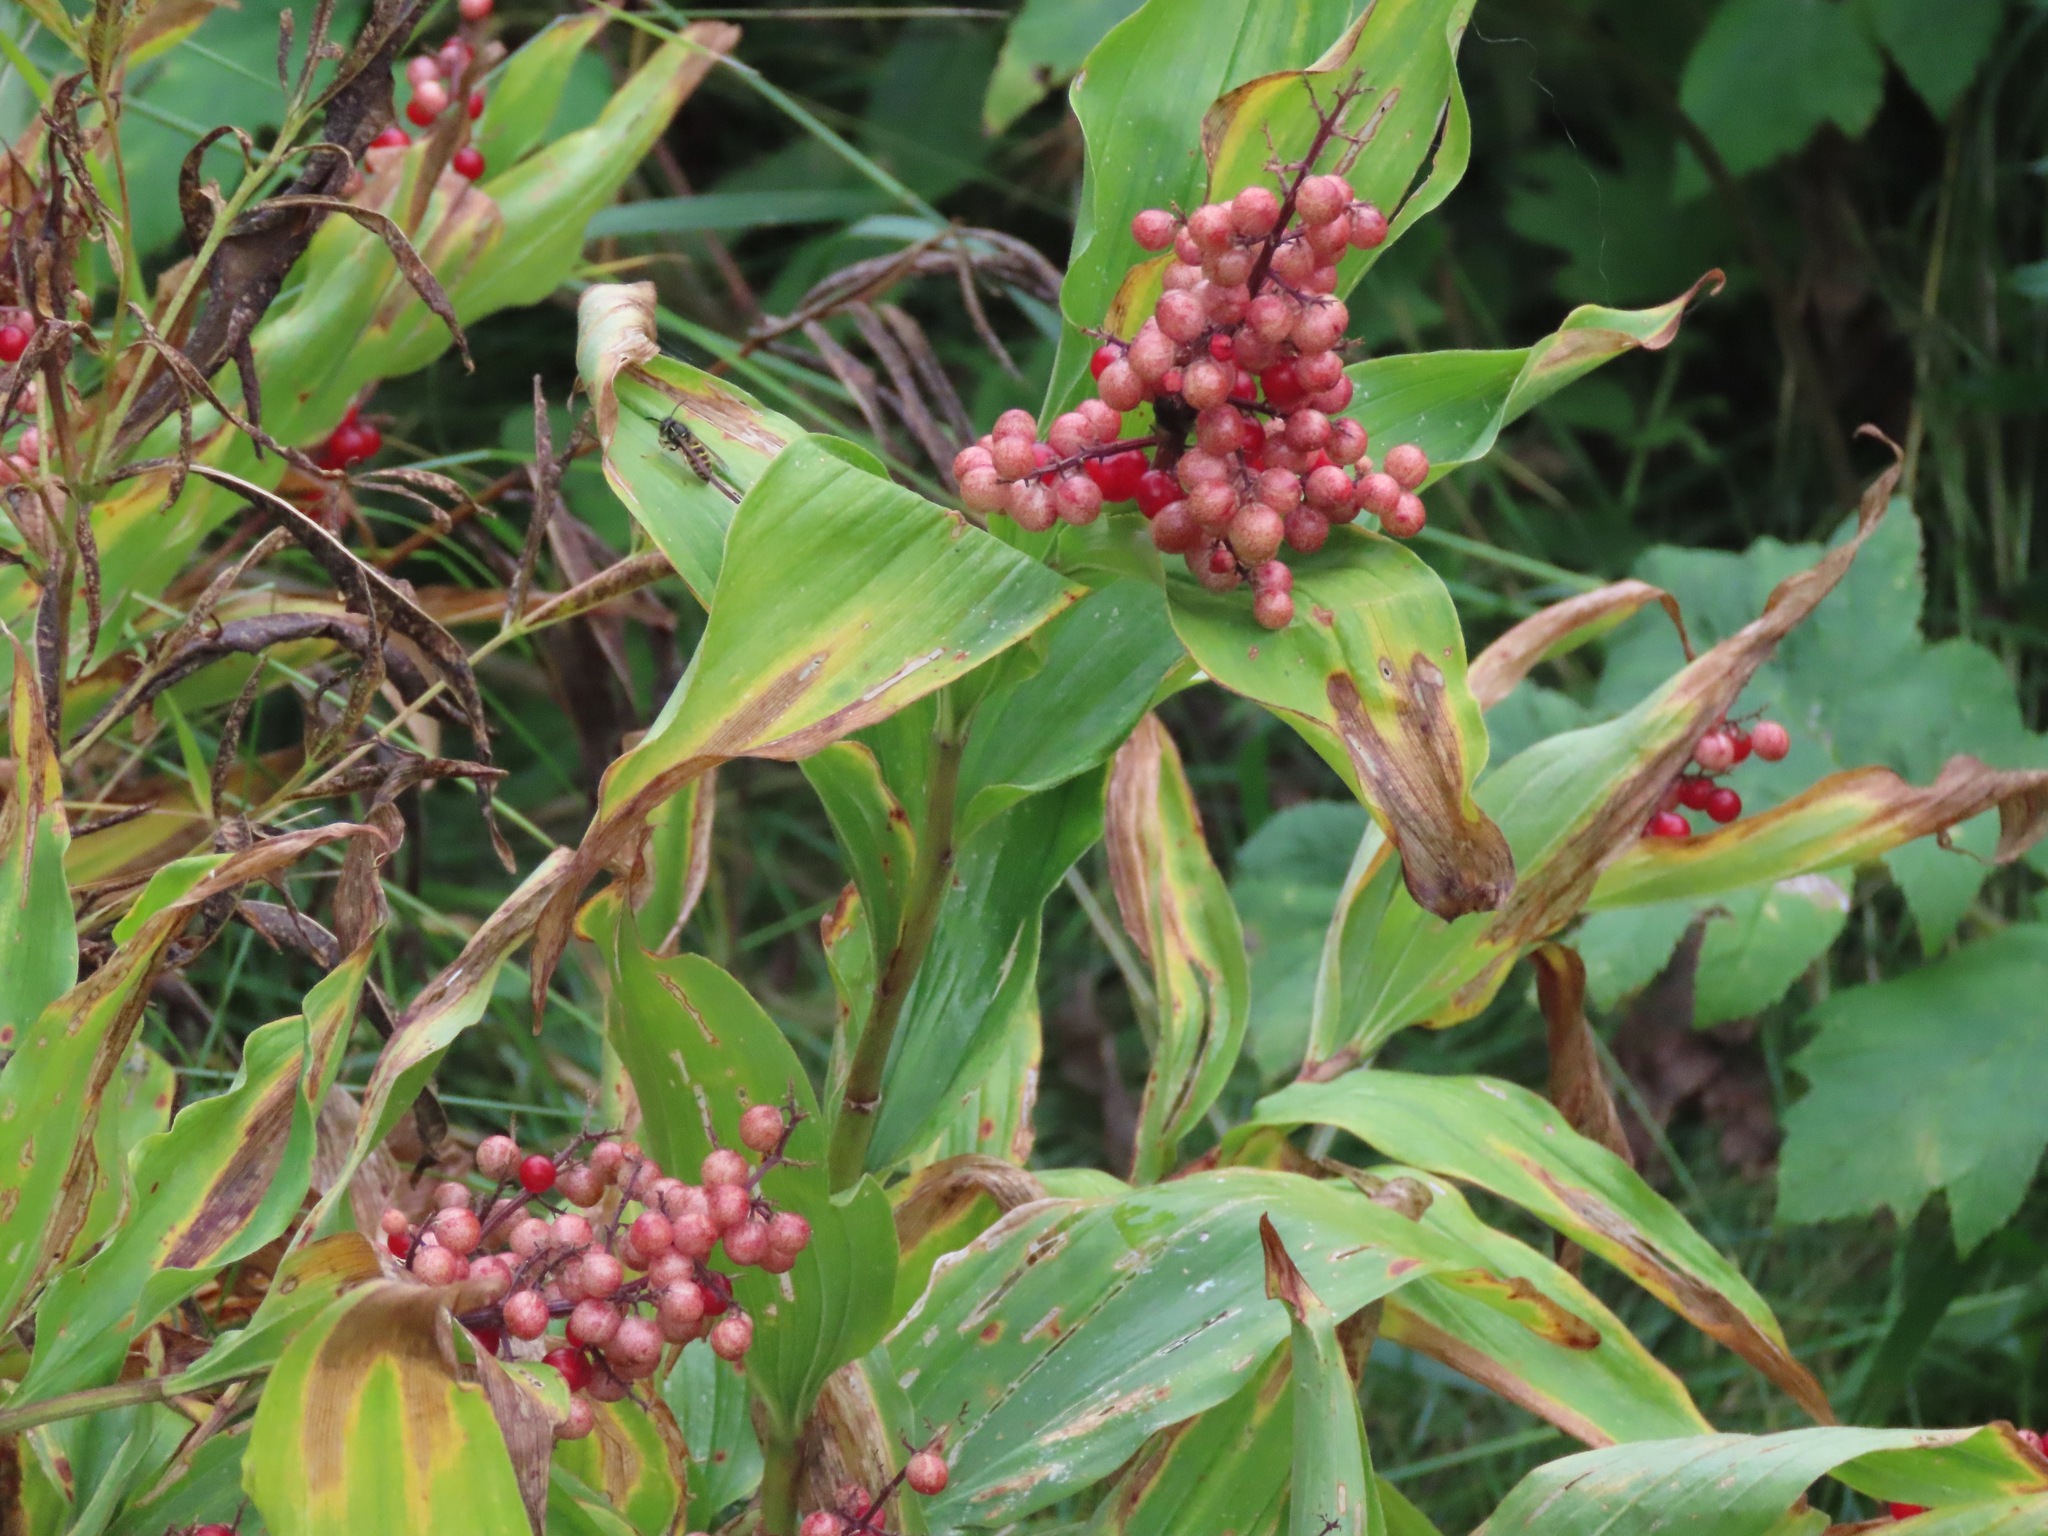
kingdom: Plantae
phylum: Tracheophyta
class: Liliopsida
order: Asparagales
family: Asparagaceae
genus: Maianthemum
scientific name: Maianthemum racemosum
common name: False spikenard
